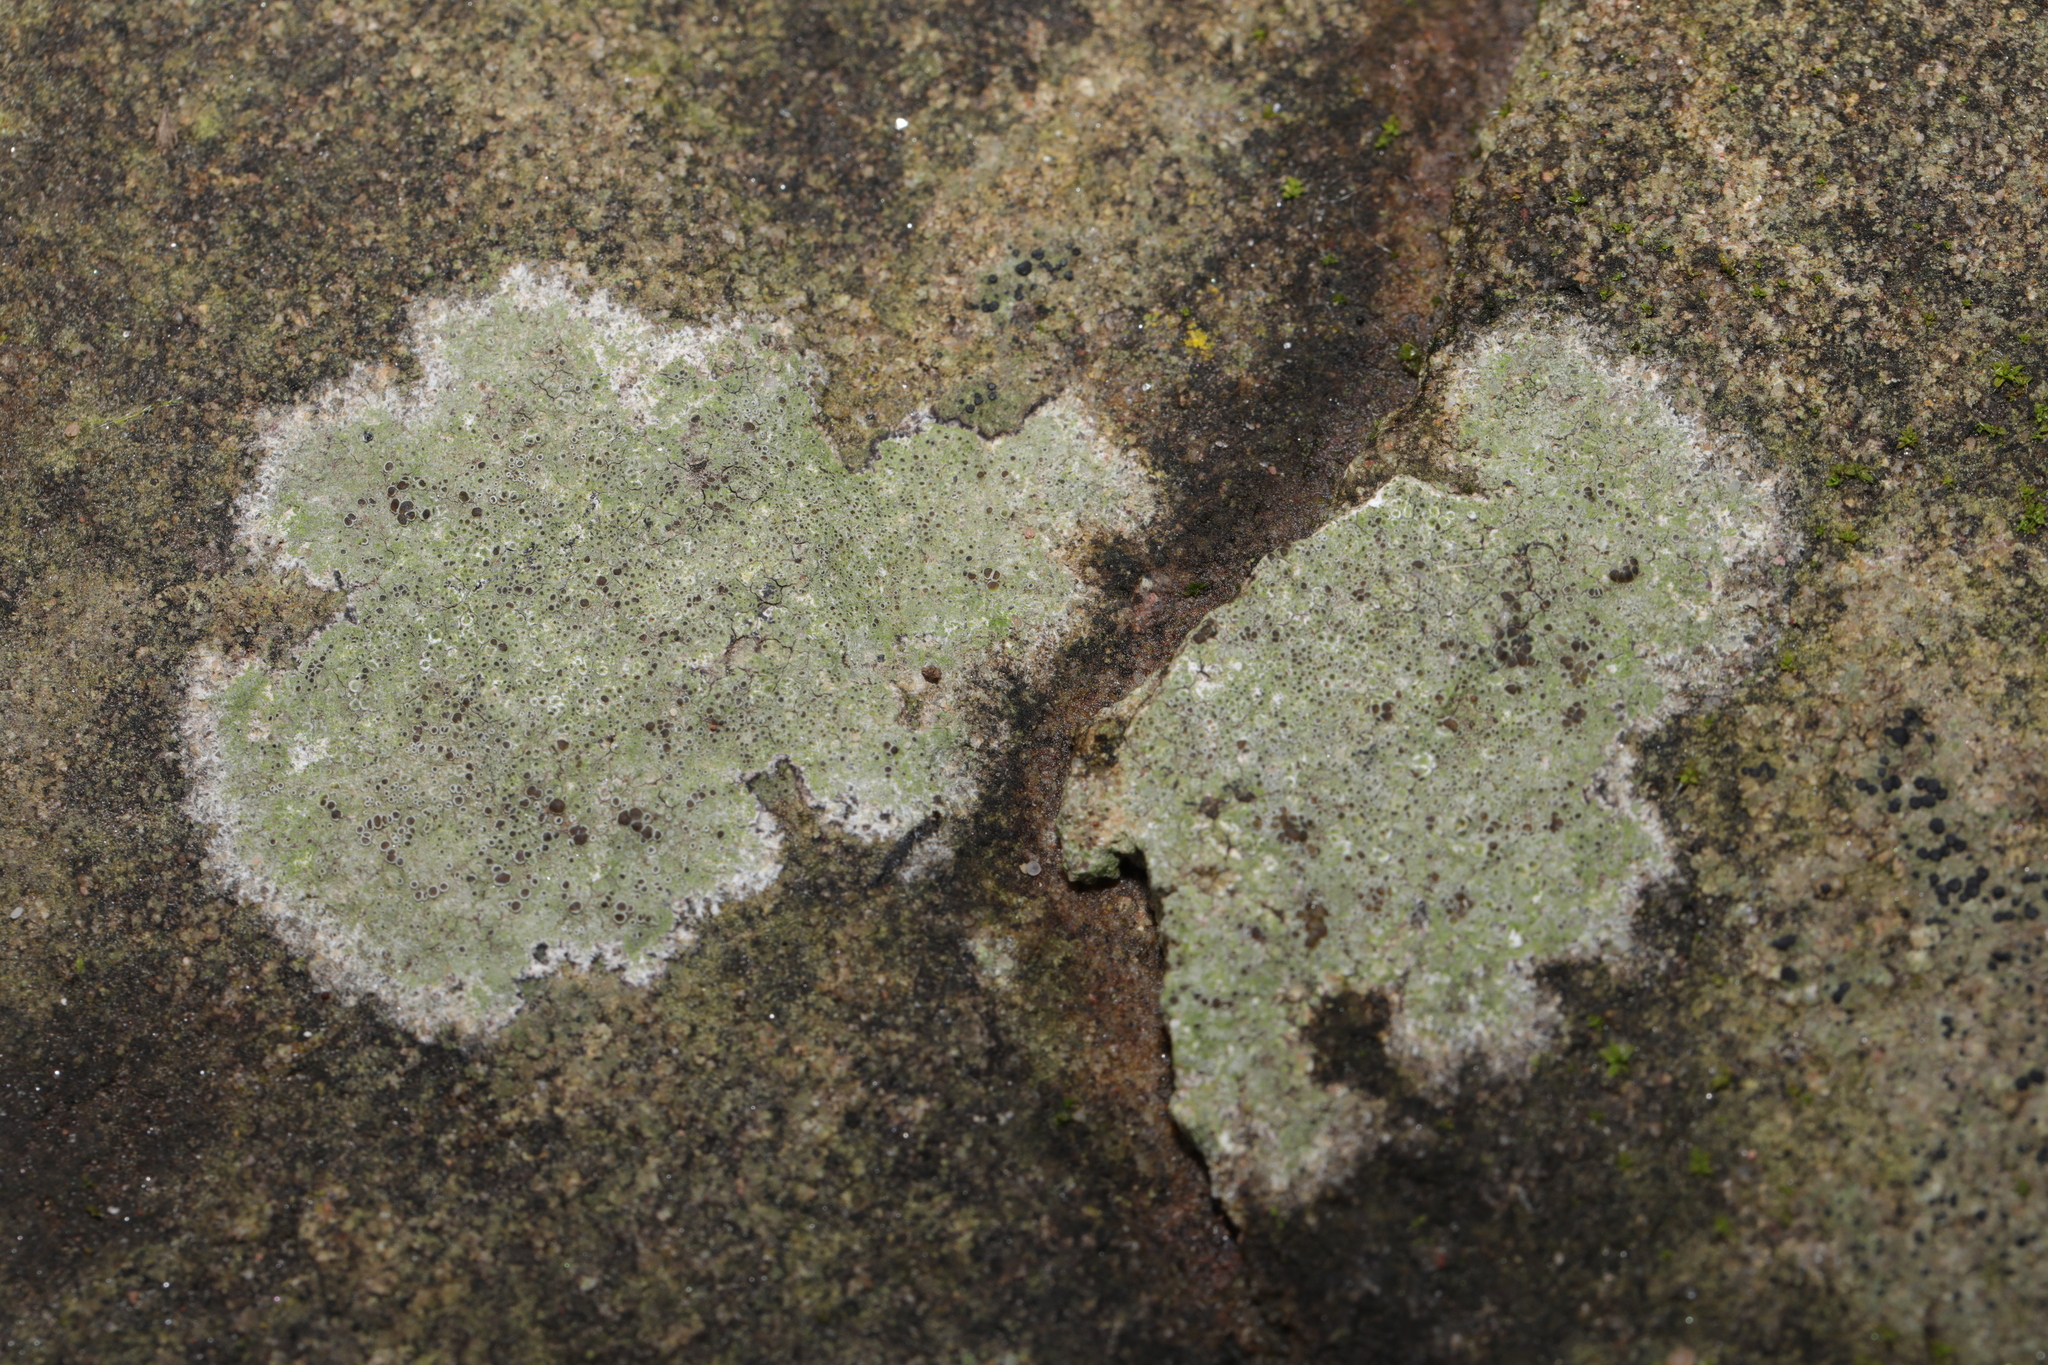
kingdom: Fungi
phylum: Ascomycota
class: Lecanoromycetes
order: Lecanorales
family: Lecanoraceae
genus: Lecanora
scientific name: Lecanora campestris
